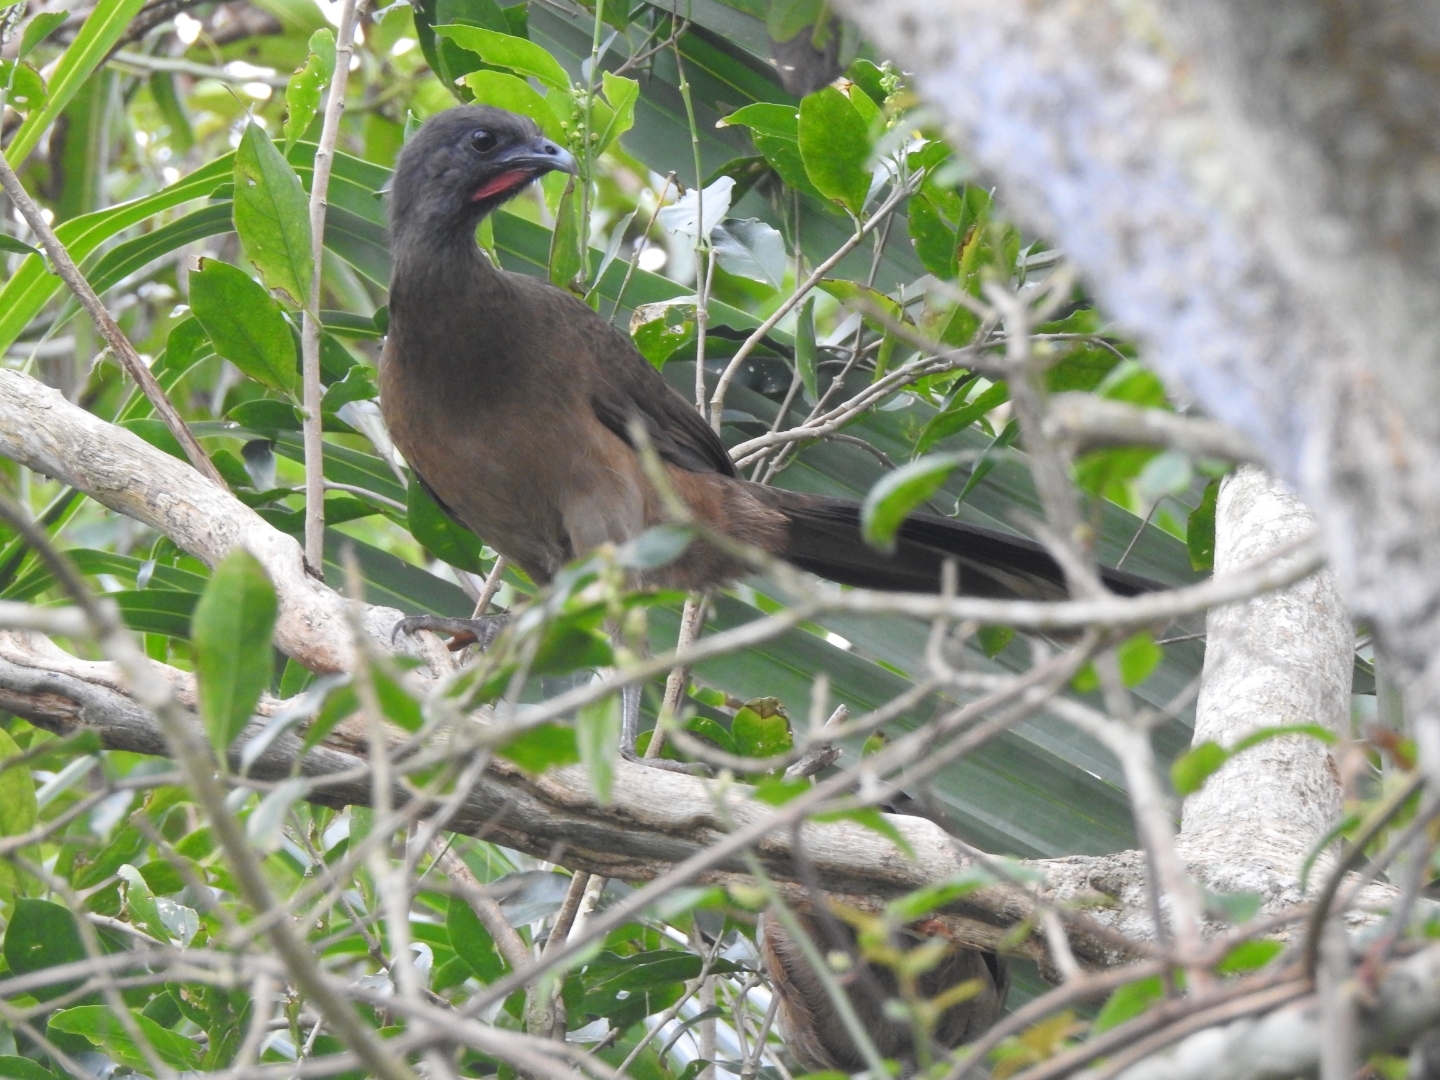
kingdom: Animalia
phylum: Chordata
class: Aves
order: Galliformes
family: Cracidae
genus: Ortalis
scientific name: Ortalis vetula
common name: Plain chachalaca
